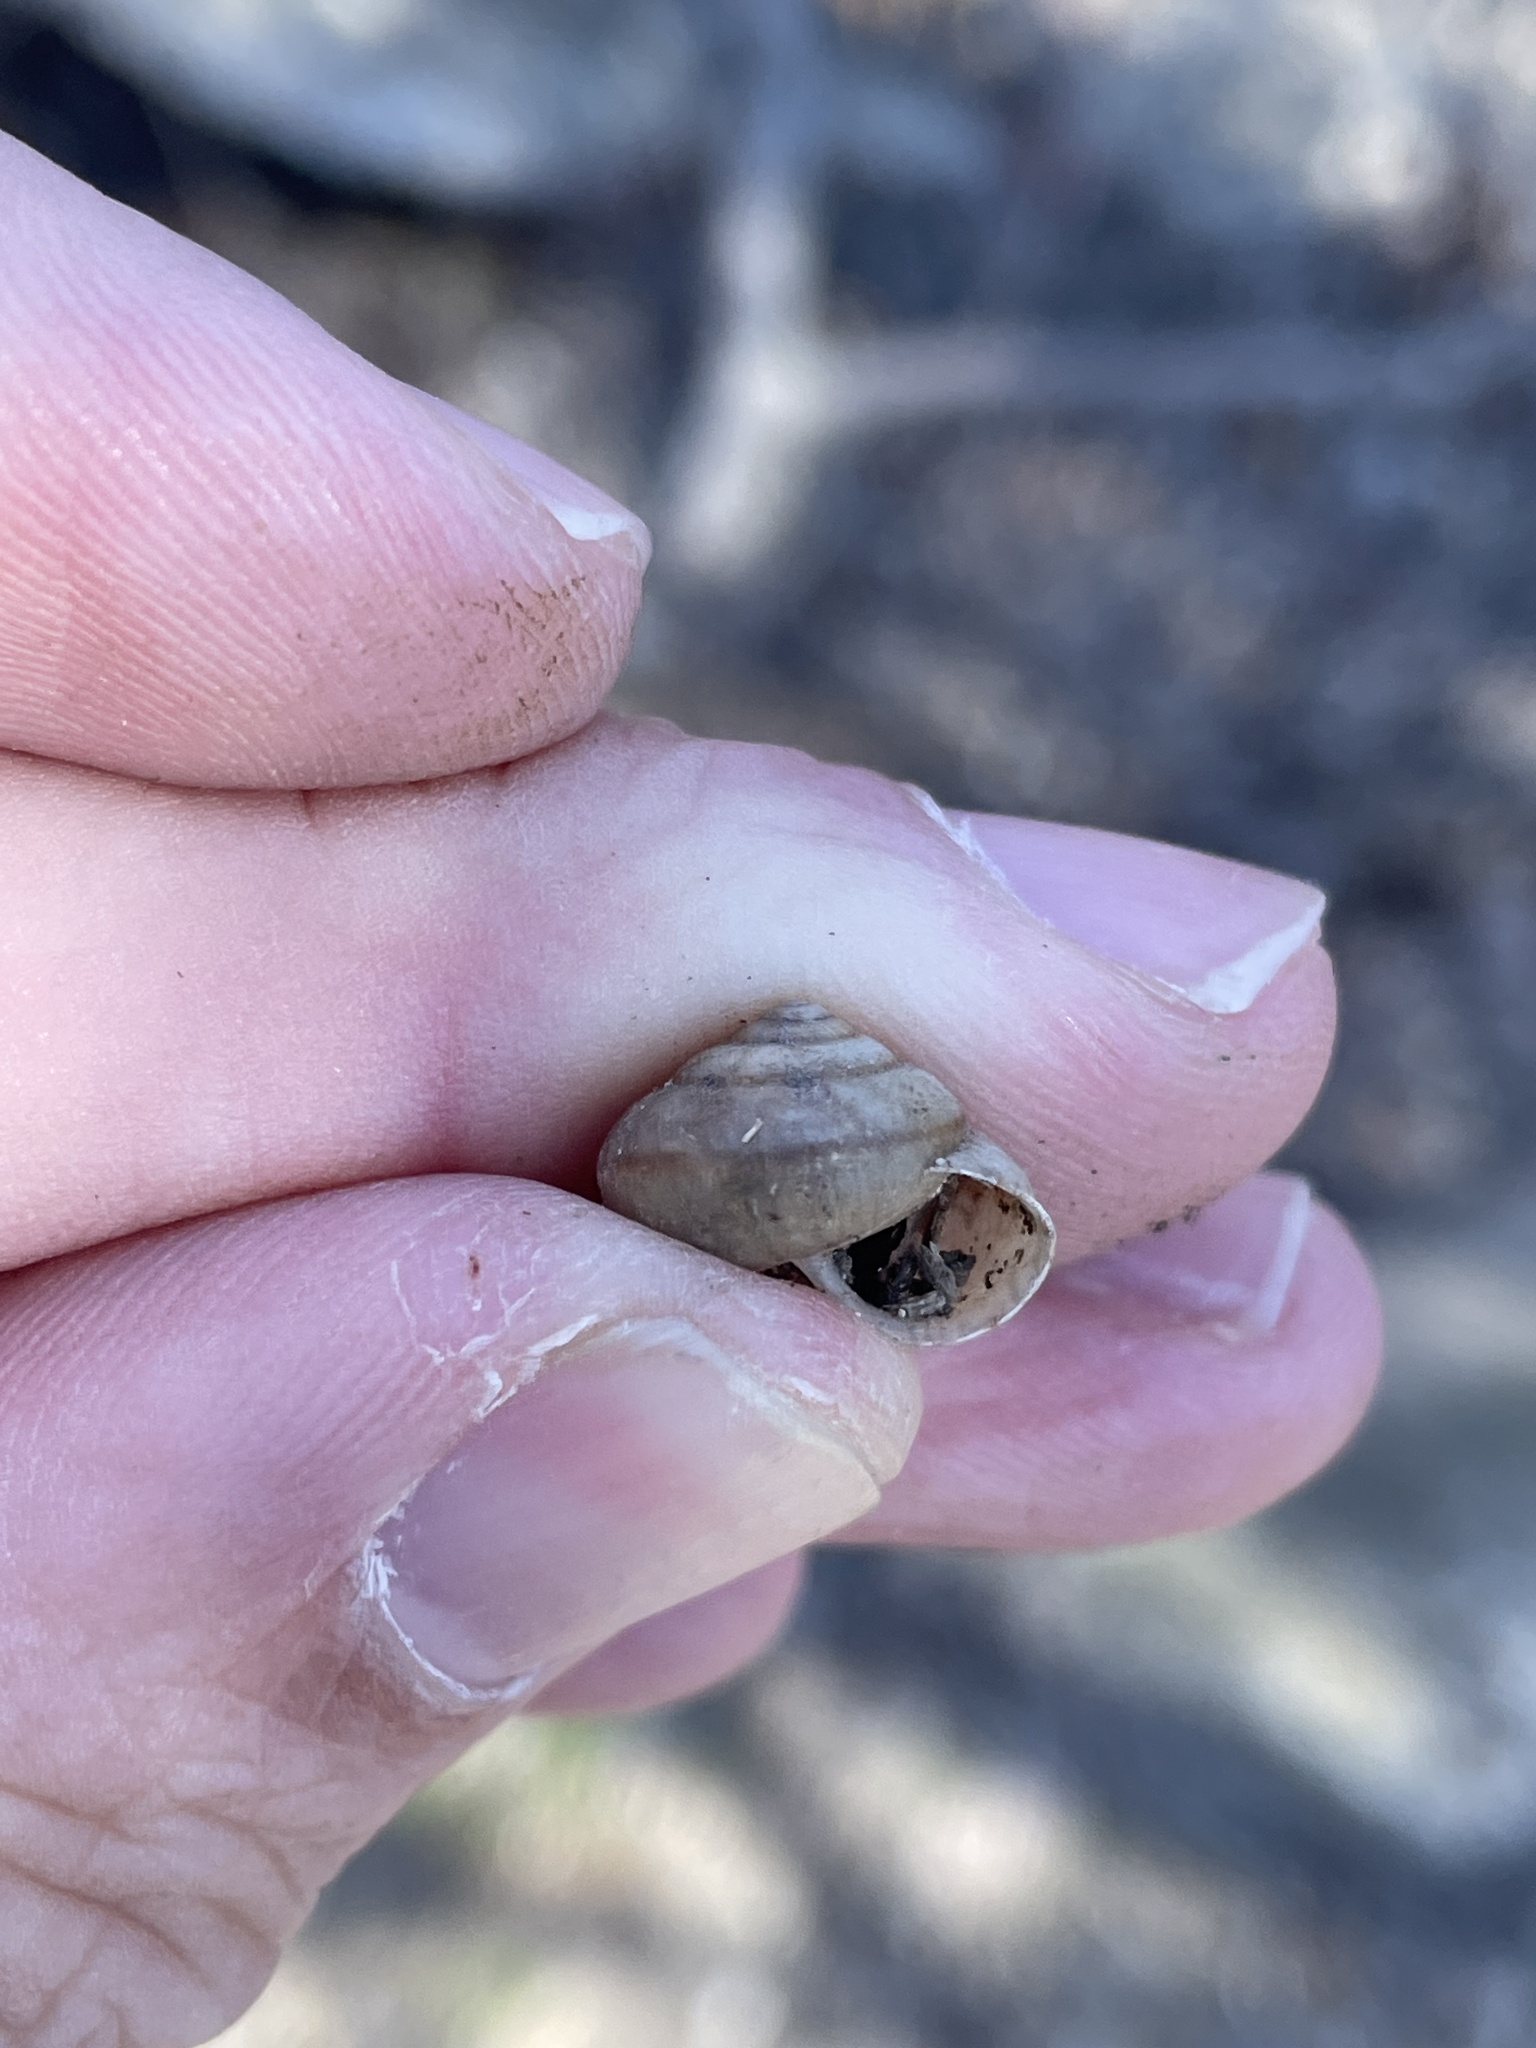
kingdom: Animalia
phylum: Mollusca
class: Gastropoda
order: Stylommatophora
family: Camaenidae
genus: Bradybaena
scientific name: Bradybaena similaris
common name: Asian trampsnail
